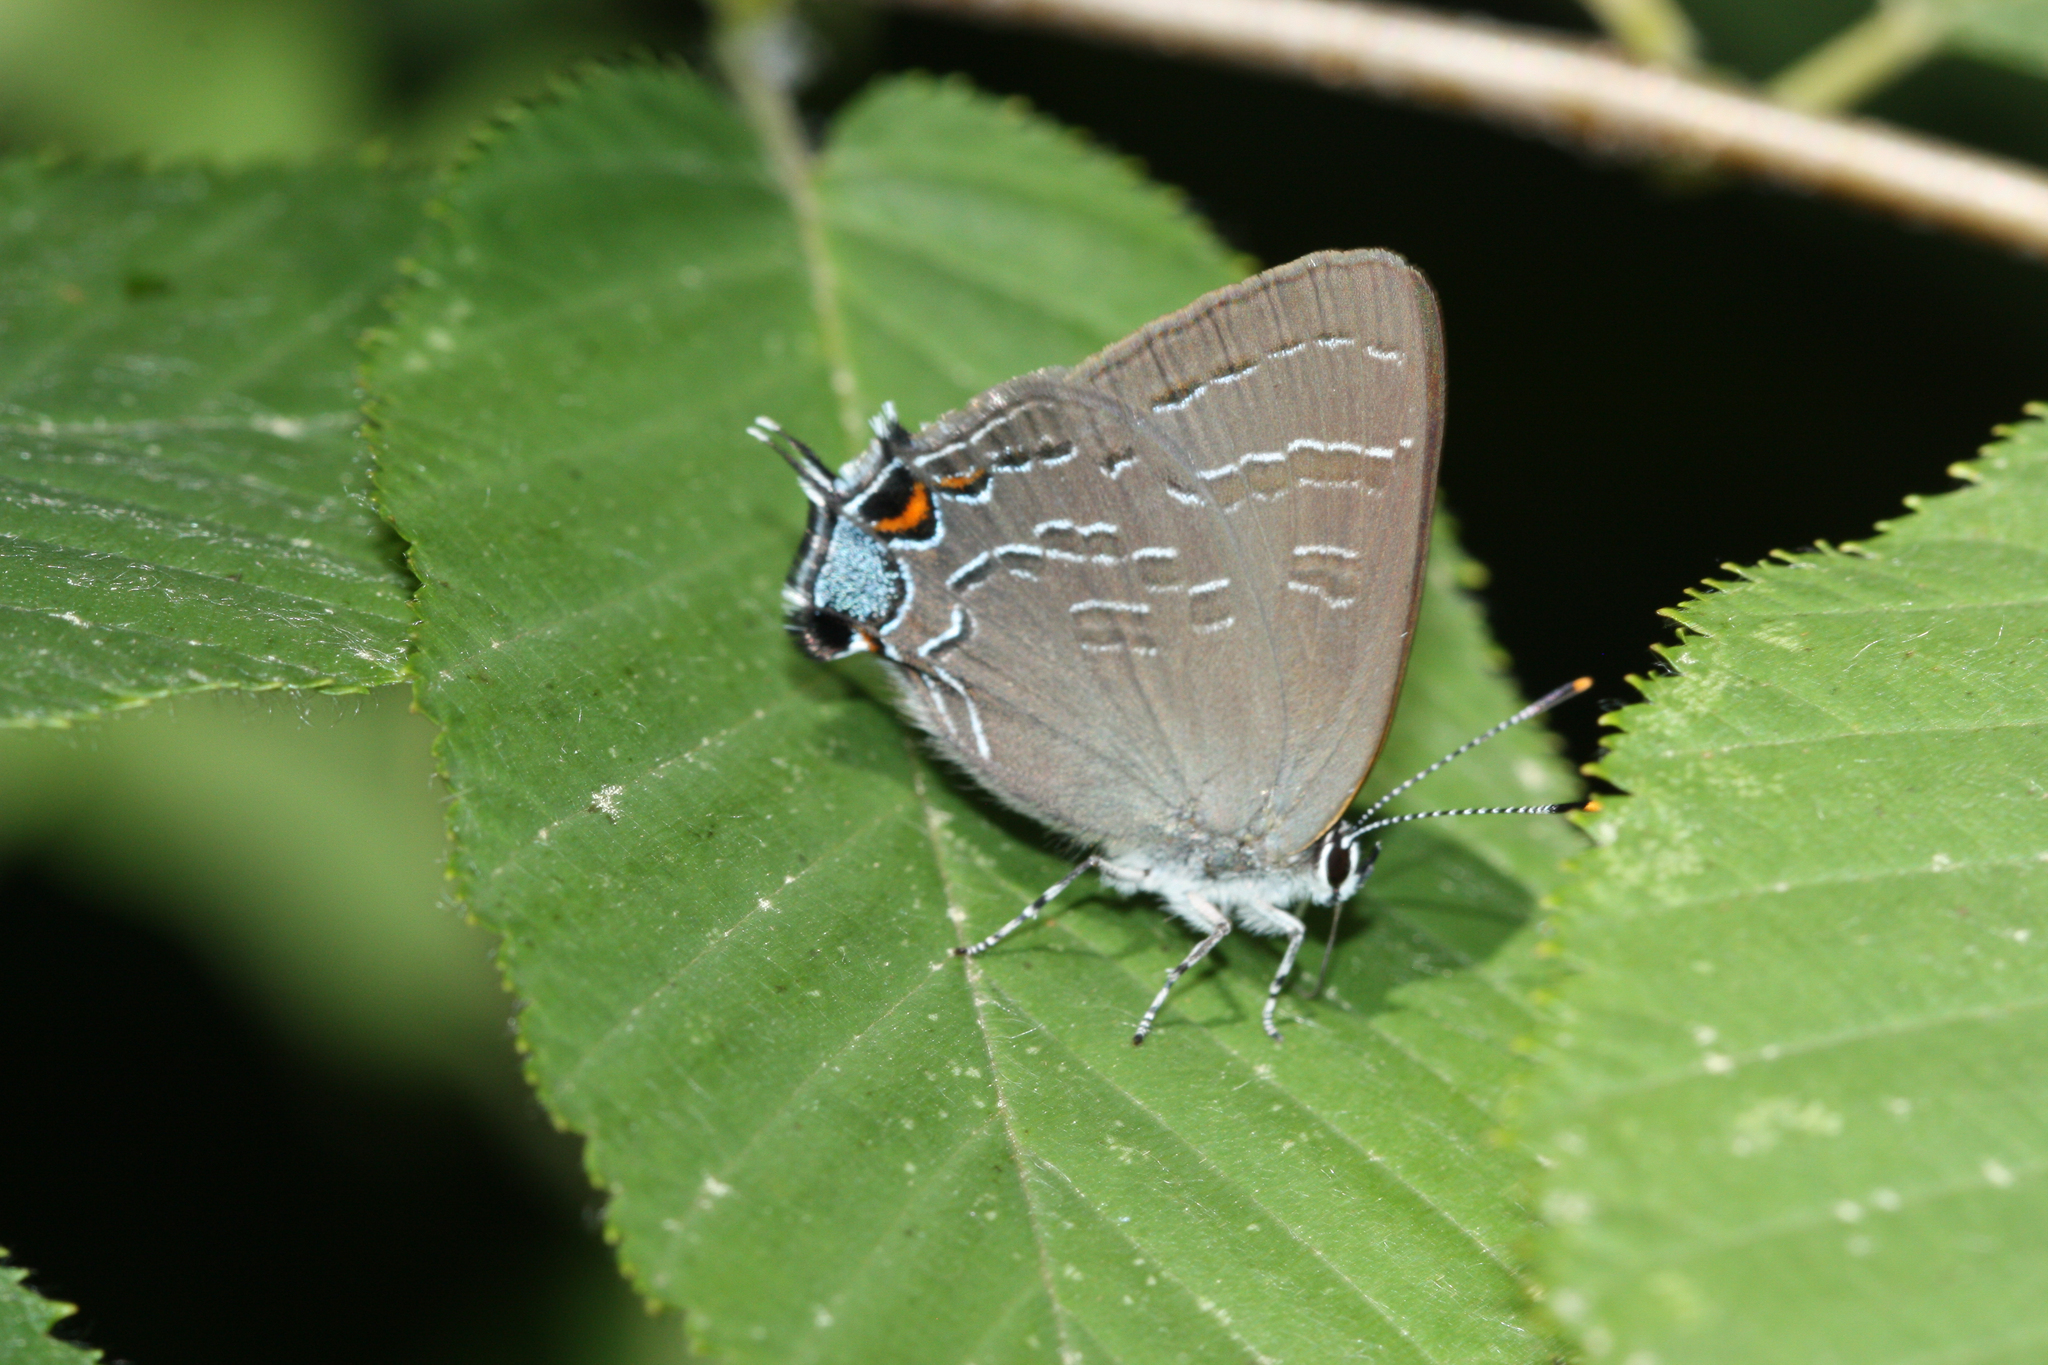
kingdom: Animalia
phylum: Arthropoda
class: Insecta
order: Lepidoptera
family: Lycaenidae
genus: Satyrium
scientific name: Satyrium calanus
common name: Banded hairstreak
